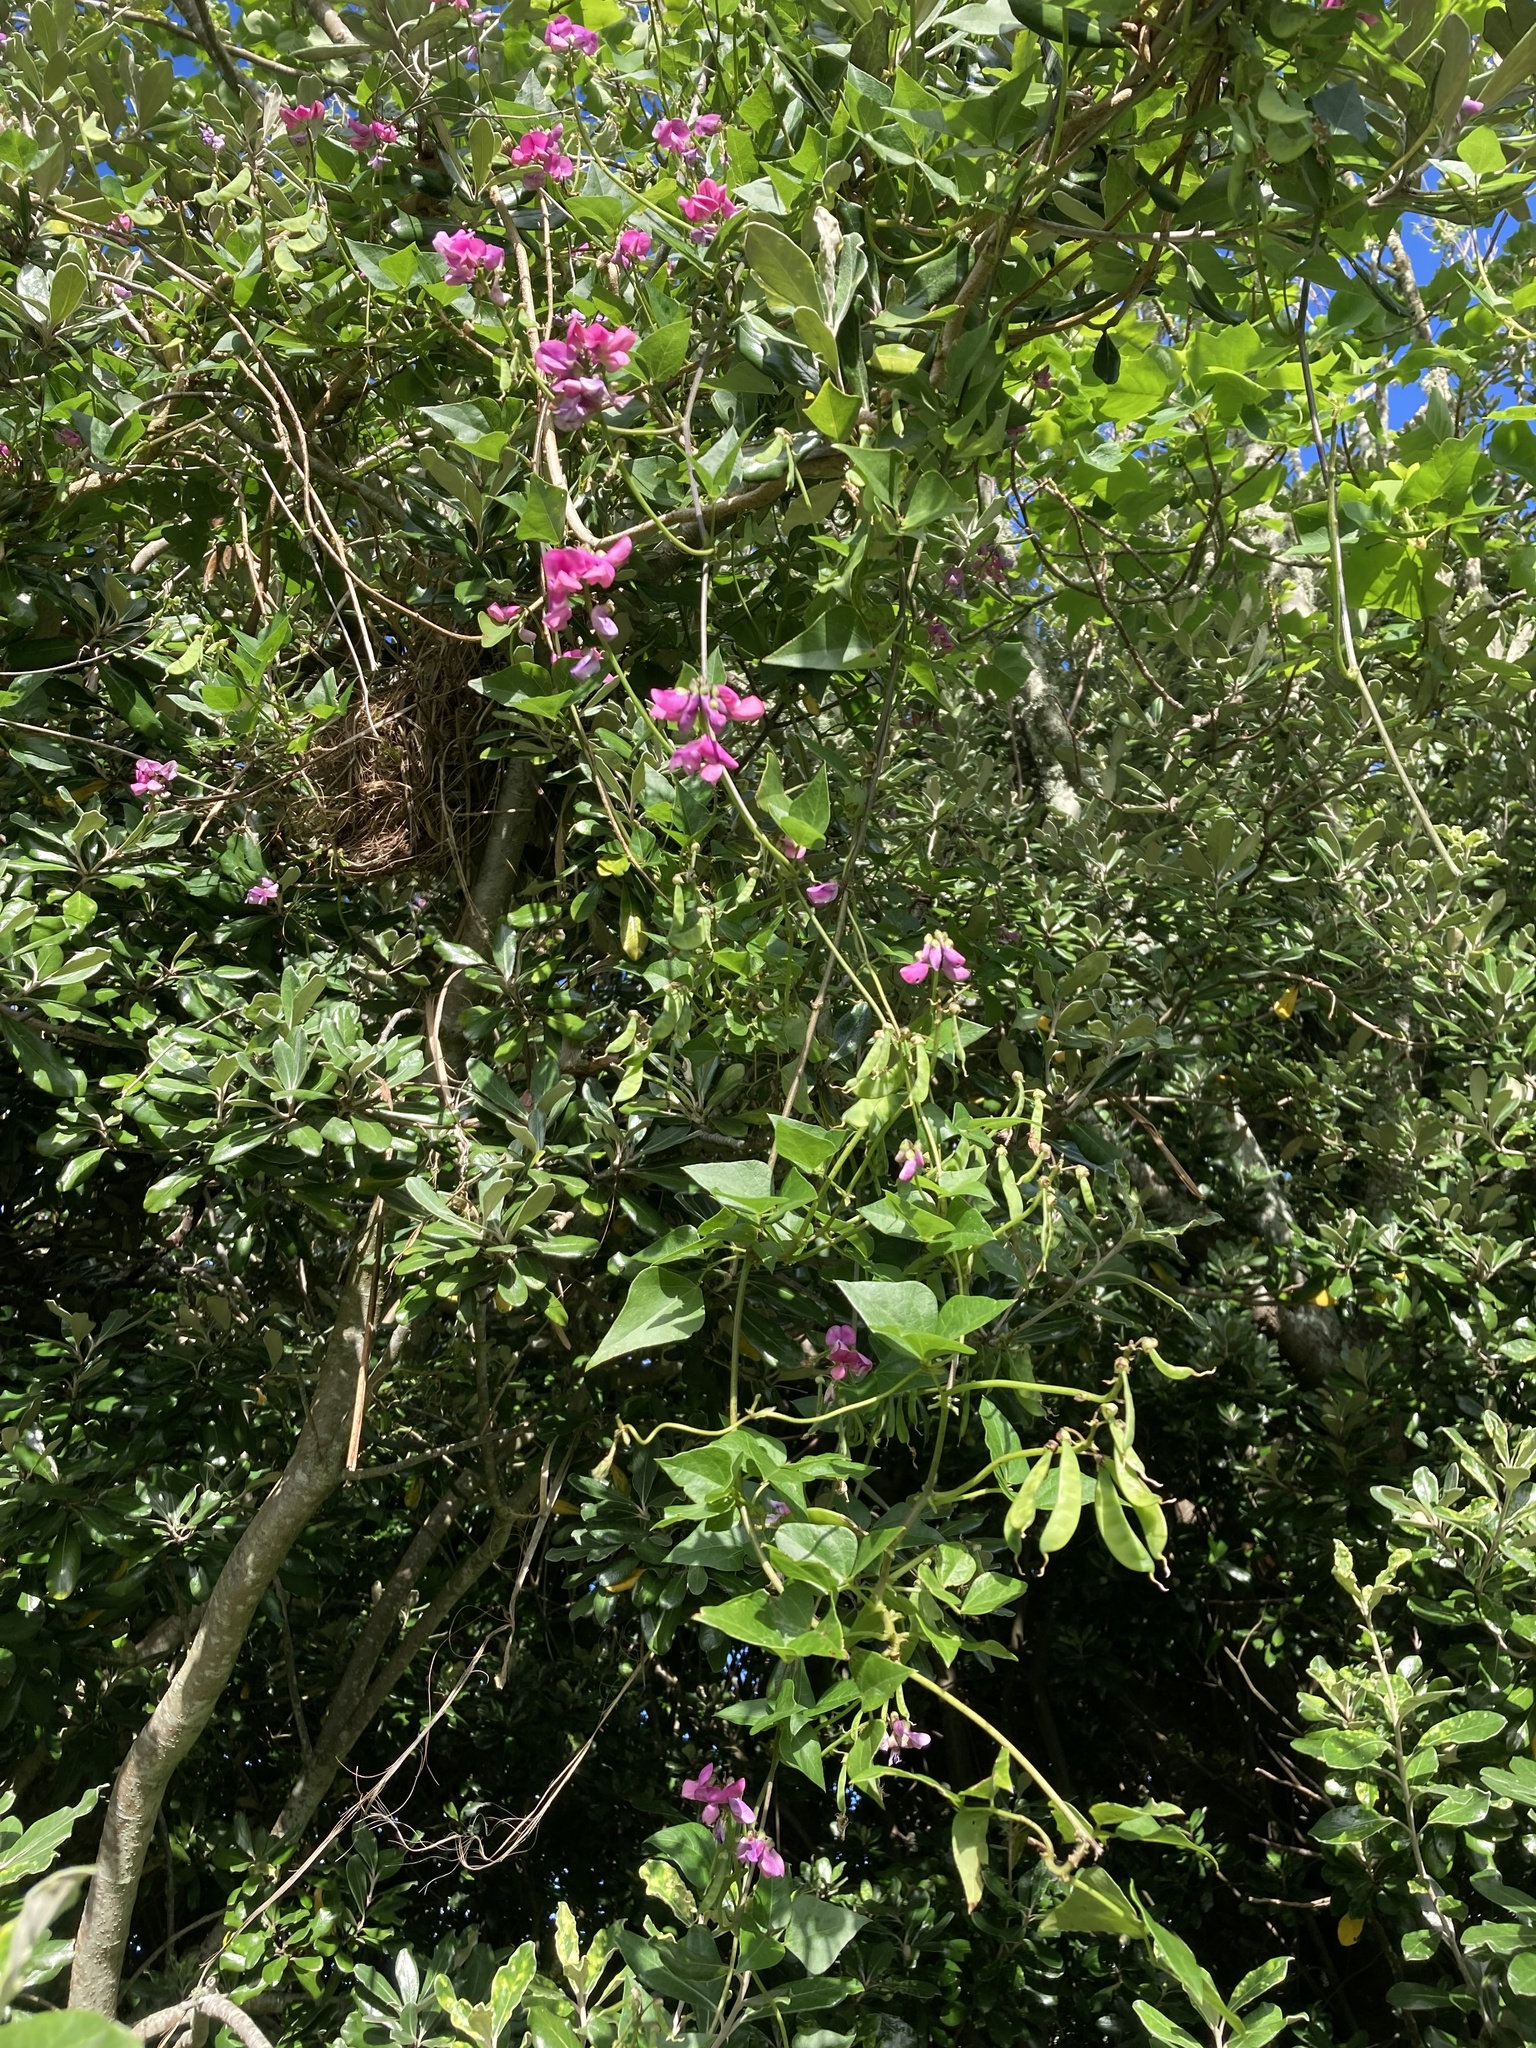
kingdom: Plantae
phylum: Tracheophyta
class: Magnoliopsida
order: Fabales
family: Fabaceae
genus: Dipogon
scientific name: Dipogon lignosus
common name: Okie bean
